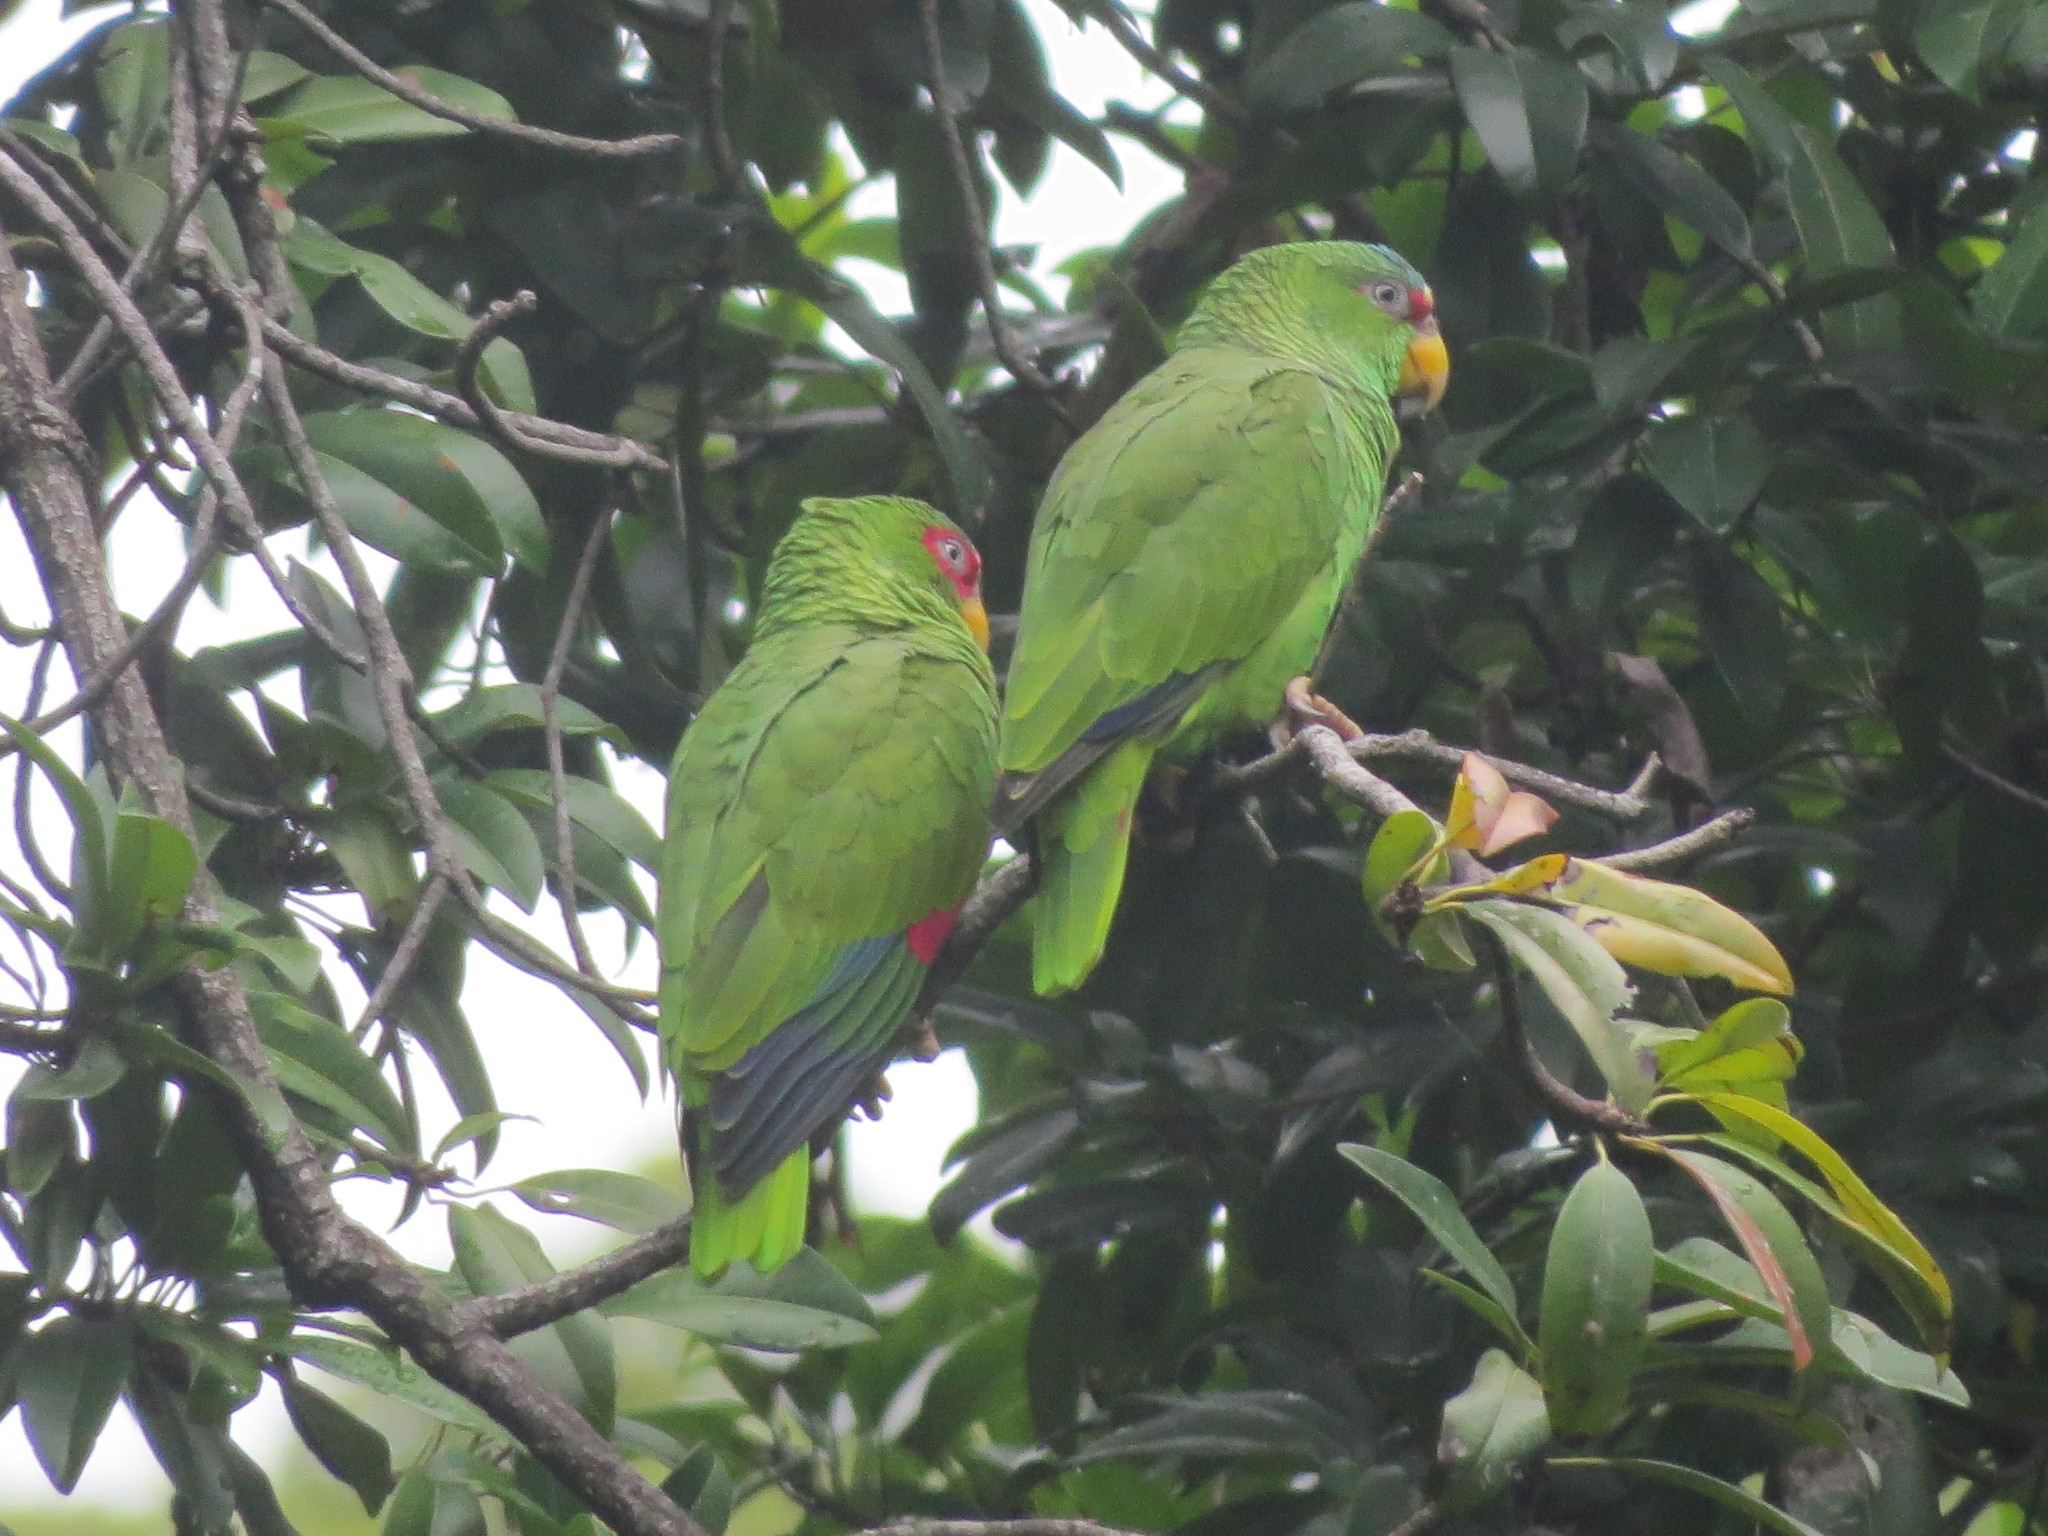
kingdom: Animalia
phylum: Chordata
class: Aves
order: Psittaciformes
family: Psittacidae
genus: Amazona
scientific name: Amazona albifrons
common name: White-fronted amazon
